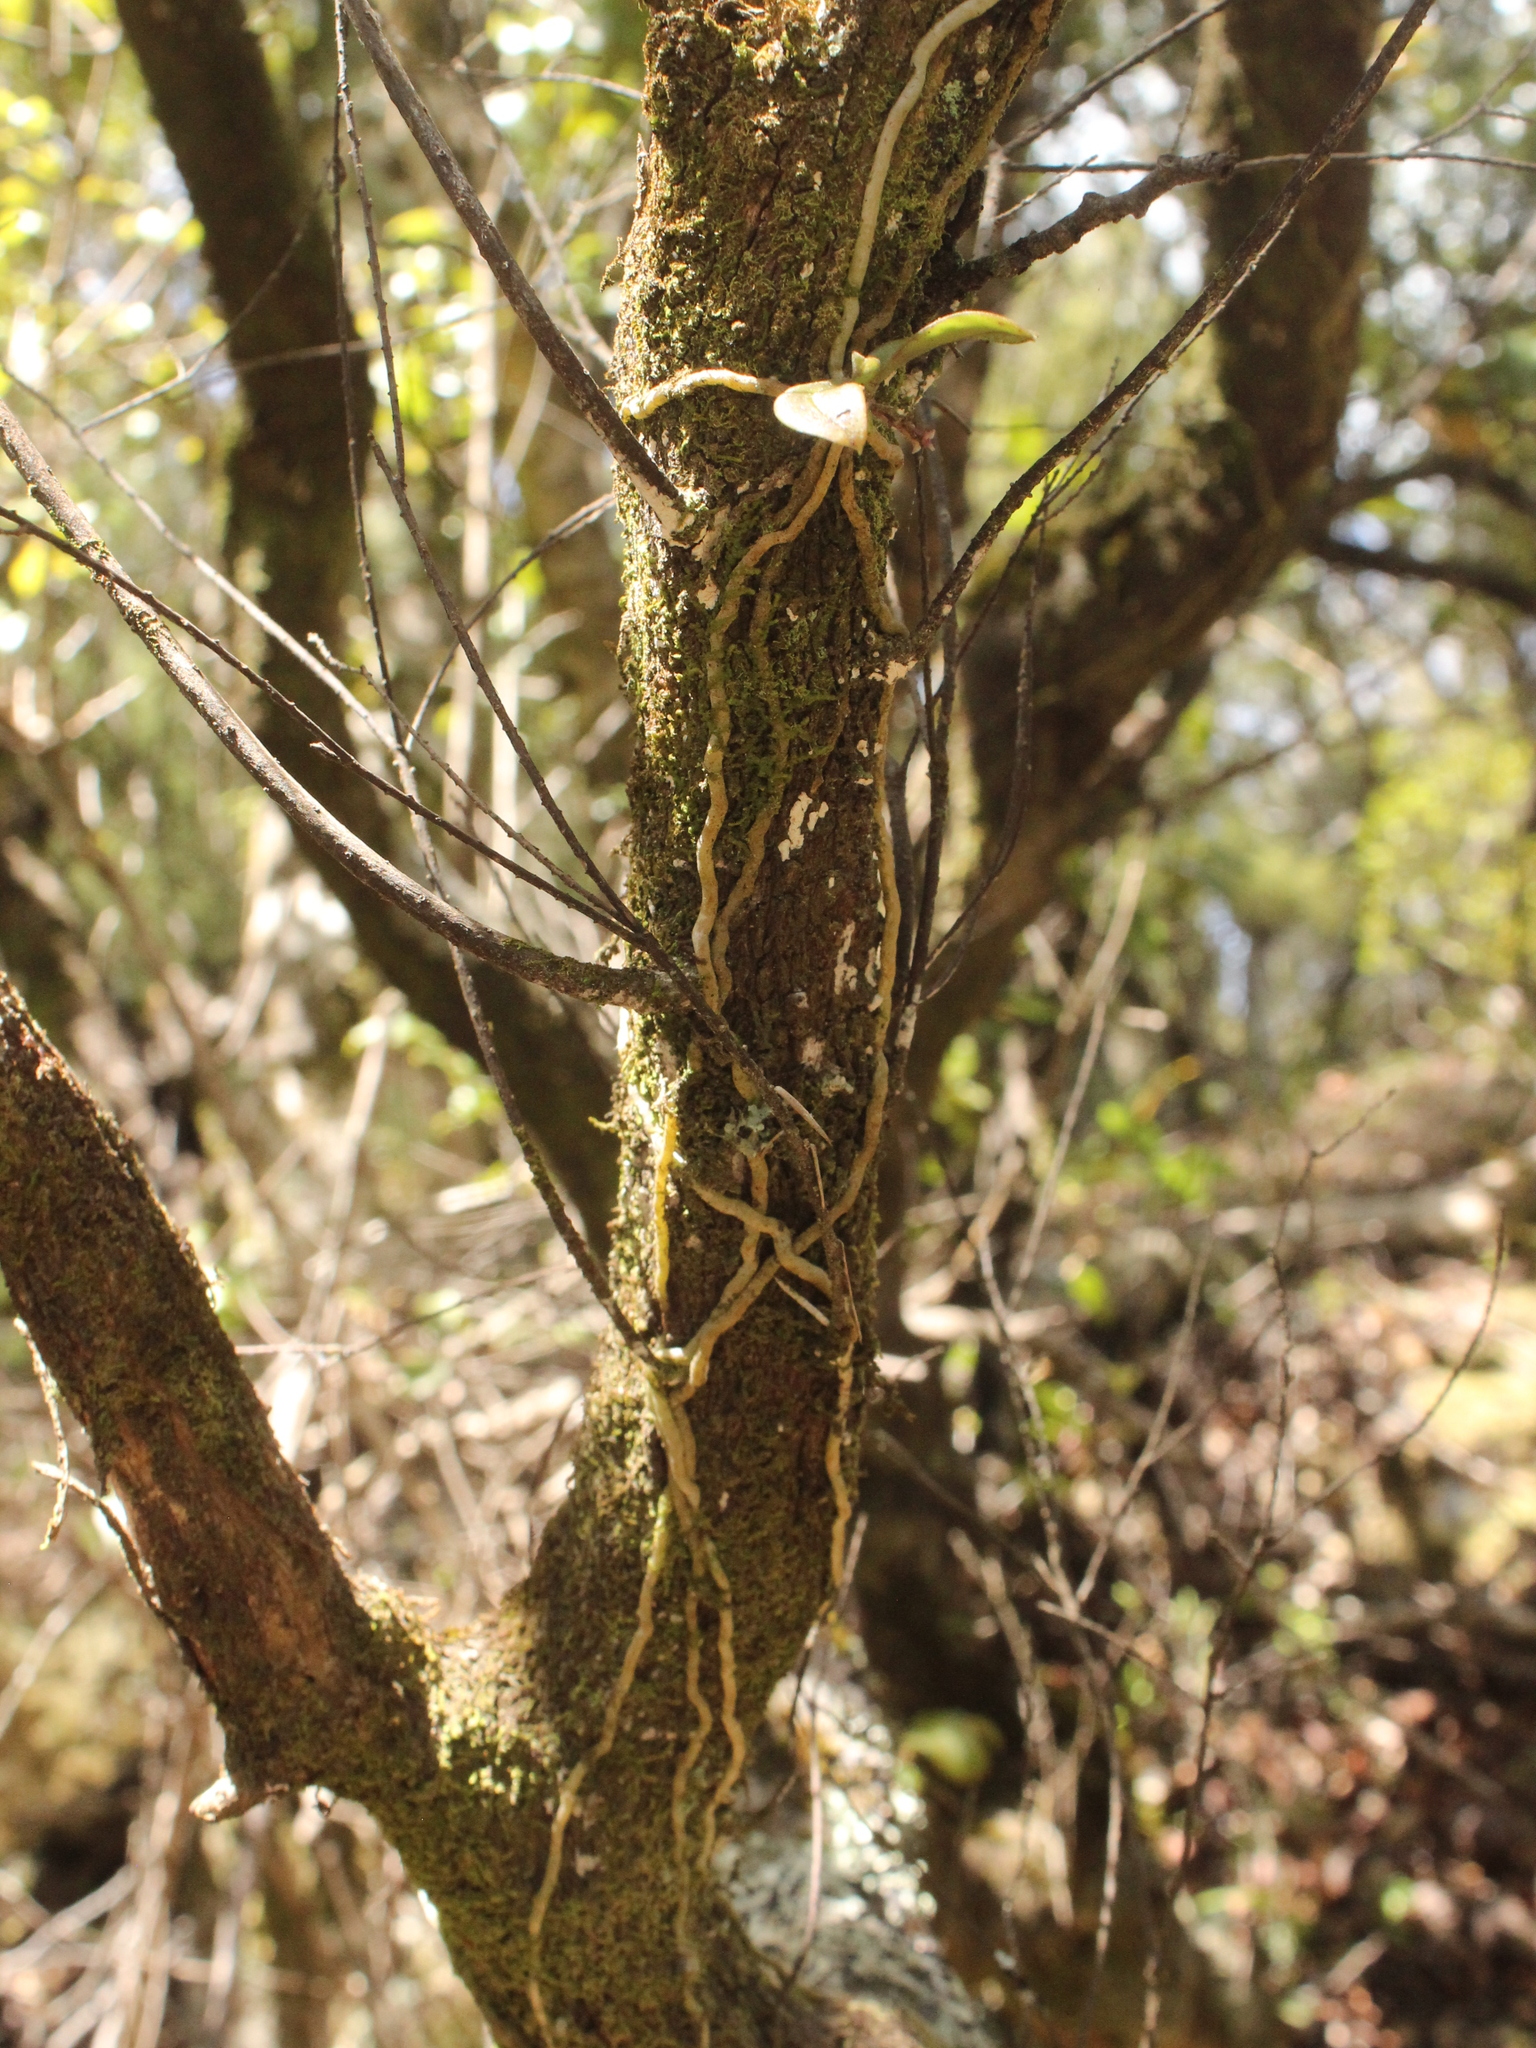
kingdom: Plantae
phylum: Tracheophyta
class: Liliopsida
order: Asparagales
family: Orchidaceae
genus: Drymoanthus
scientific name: Drymoanthus adversus
